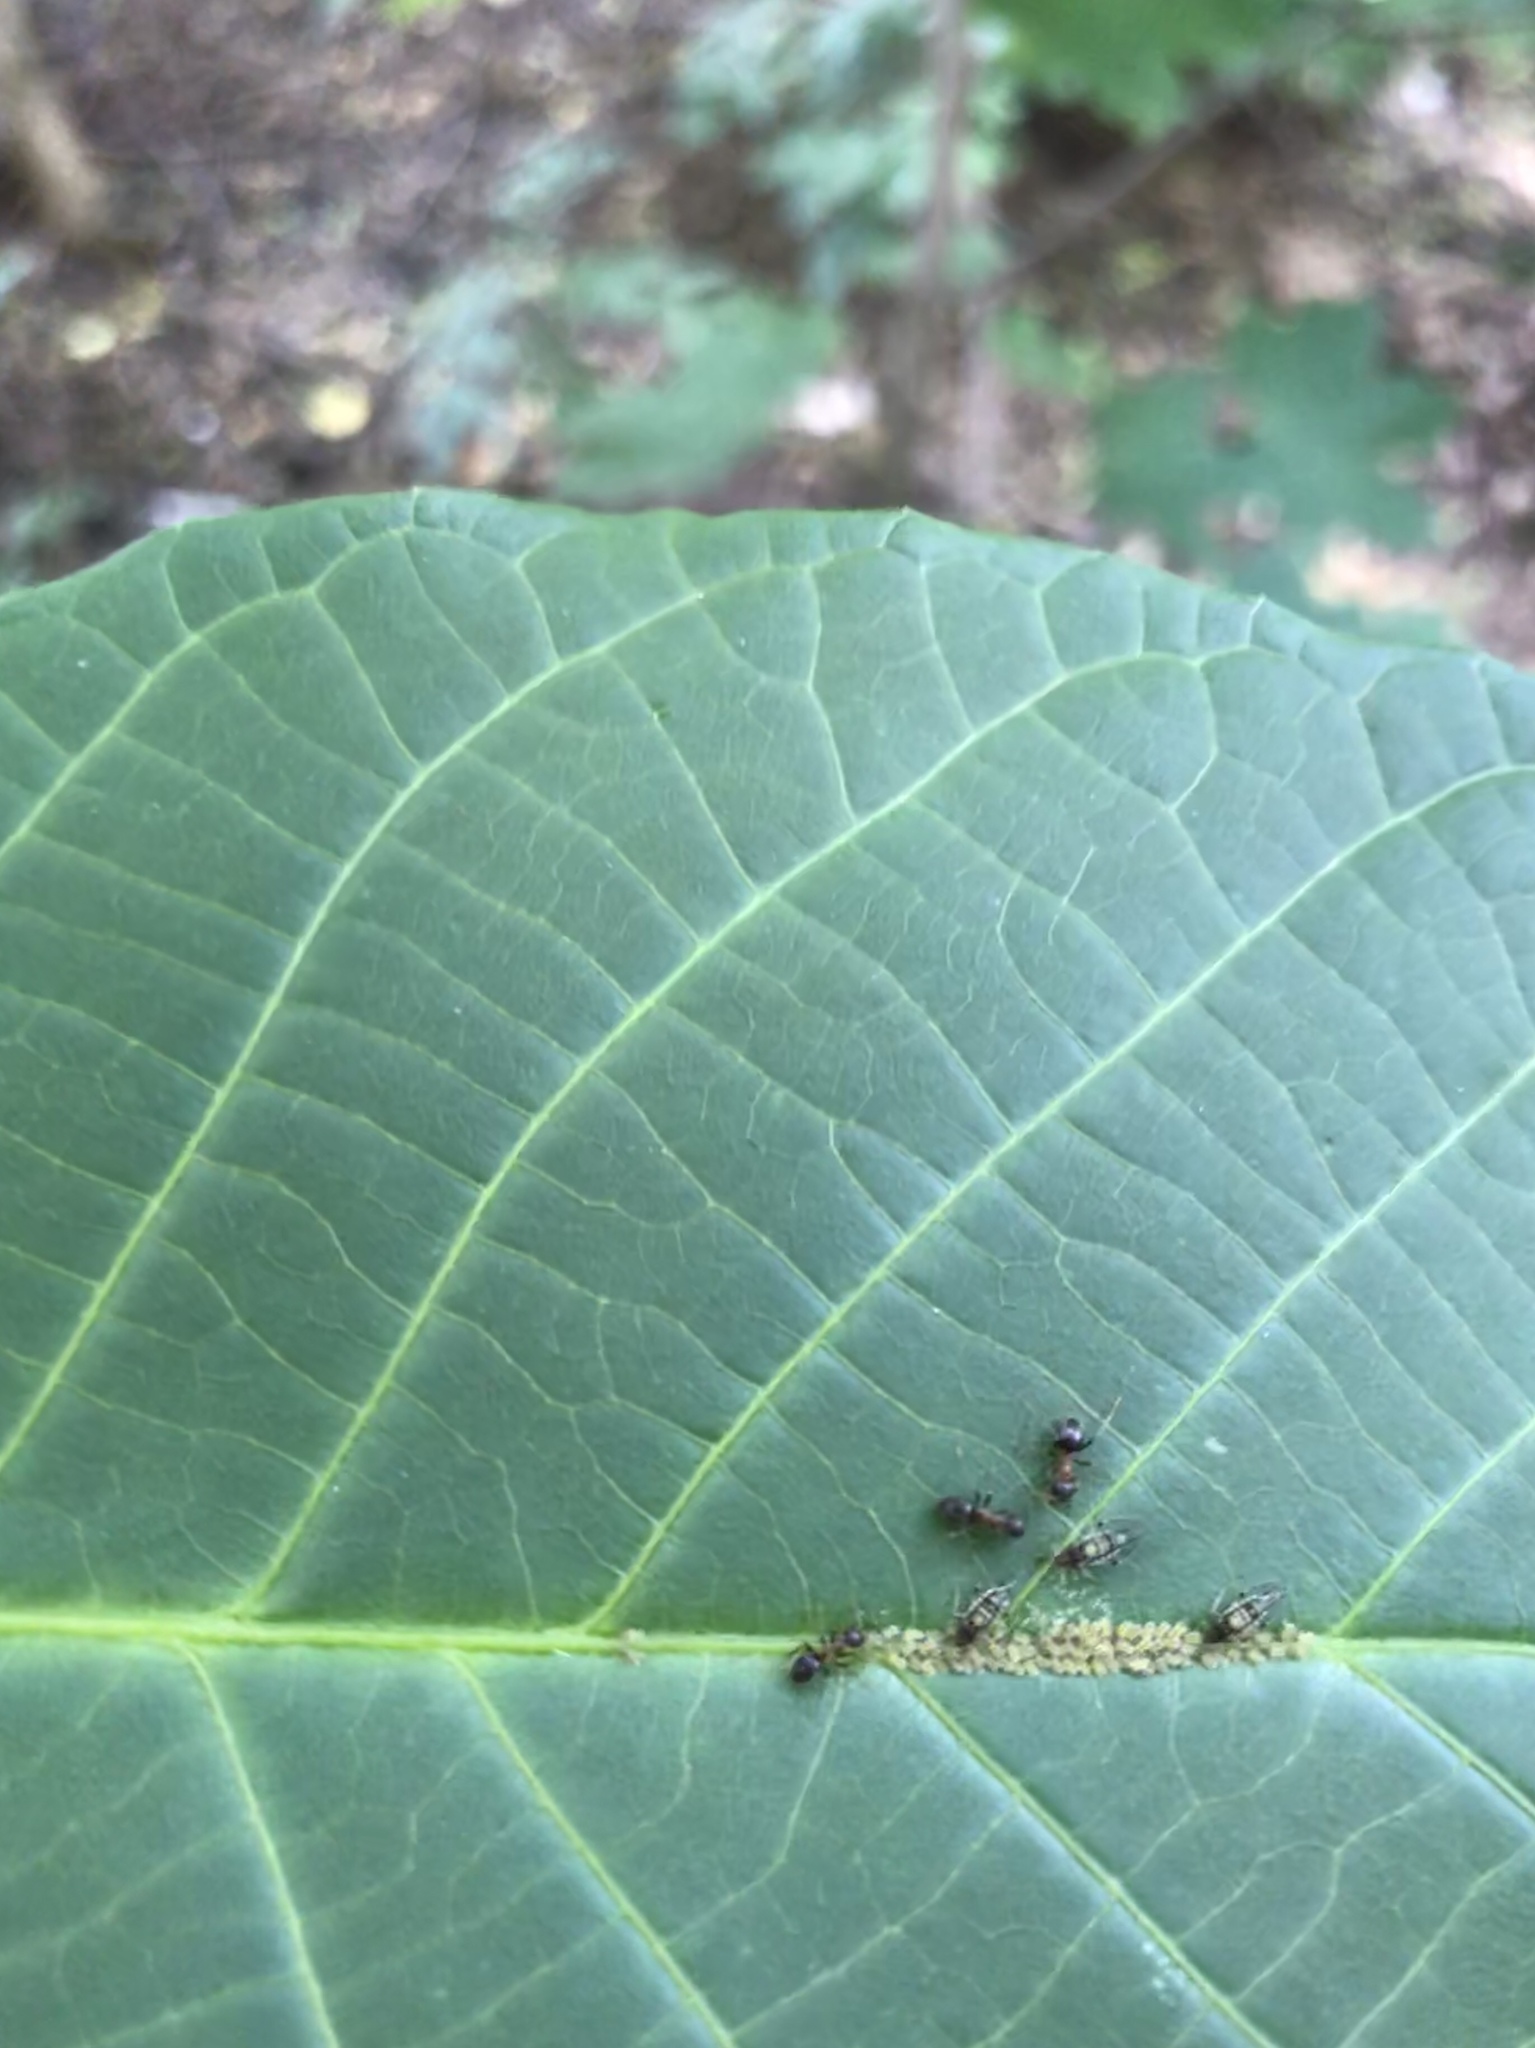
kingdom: Animalia
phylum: Arthropoda
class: Insecta
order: Hymenoptera
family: Formicidae
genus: Lasius
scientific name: Lasius emarginatus
